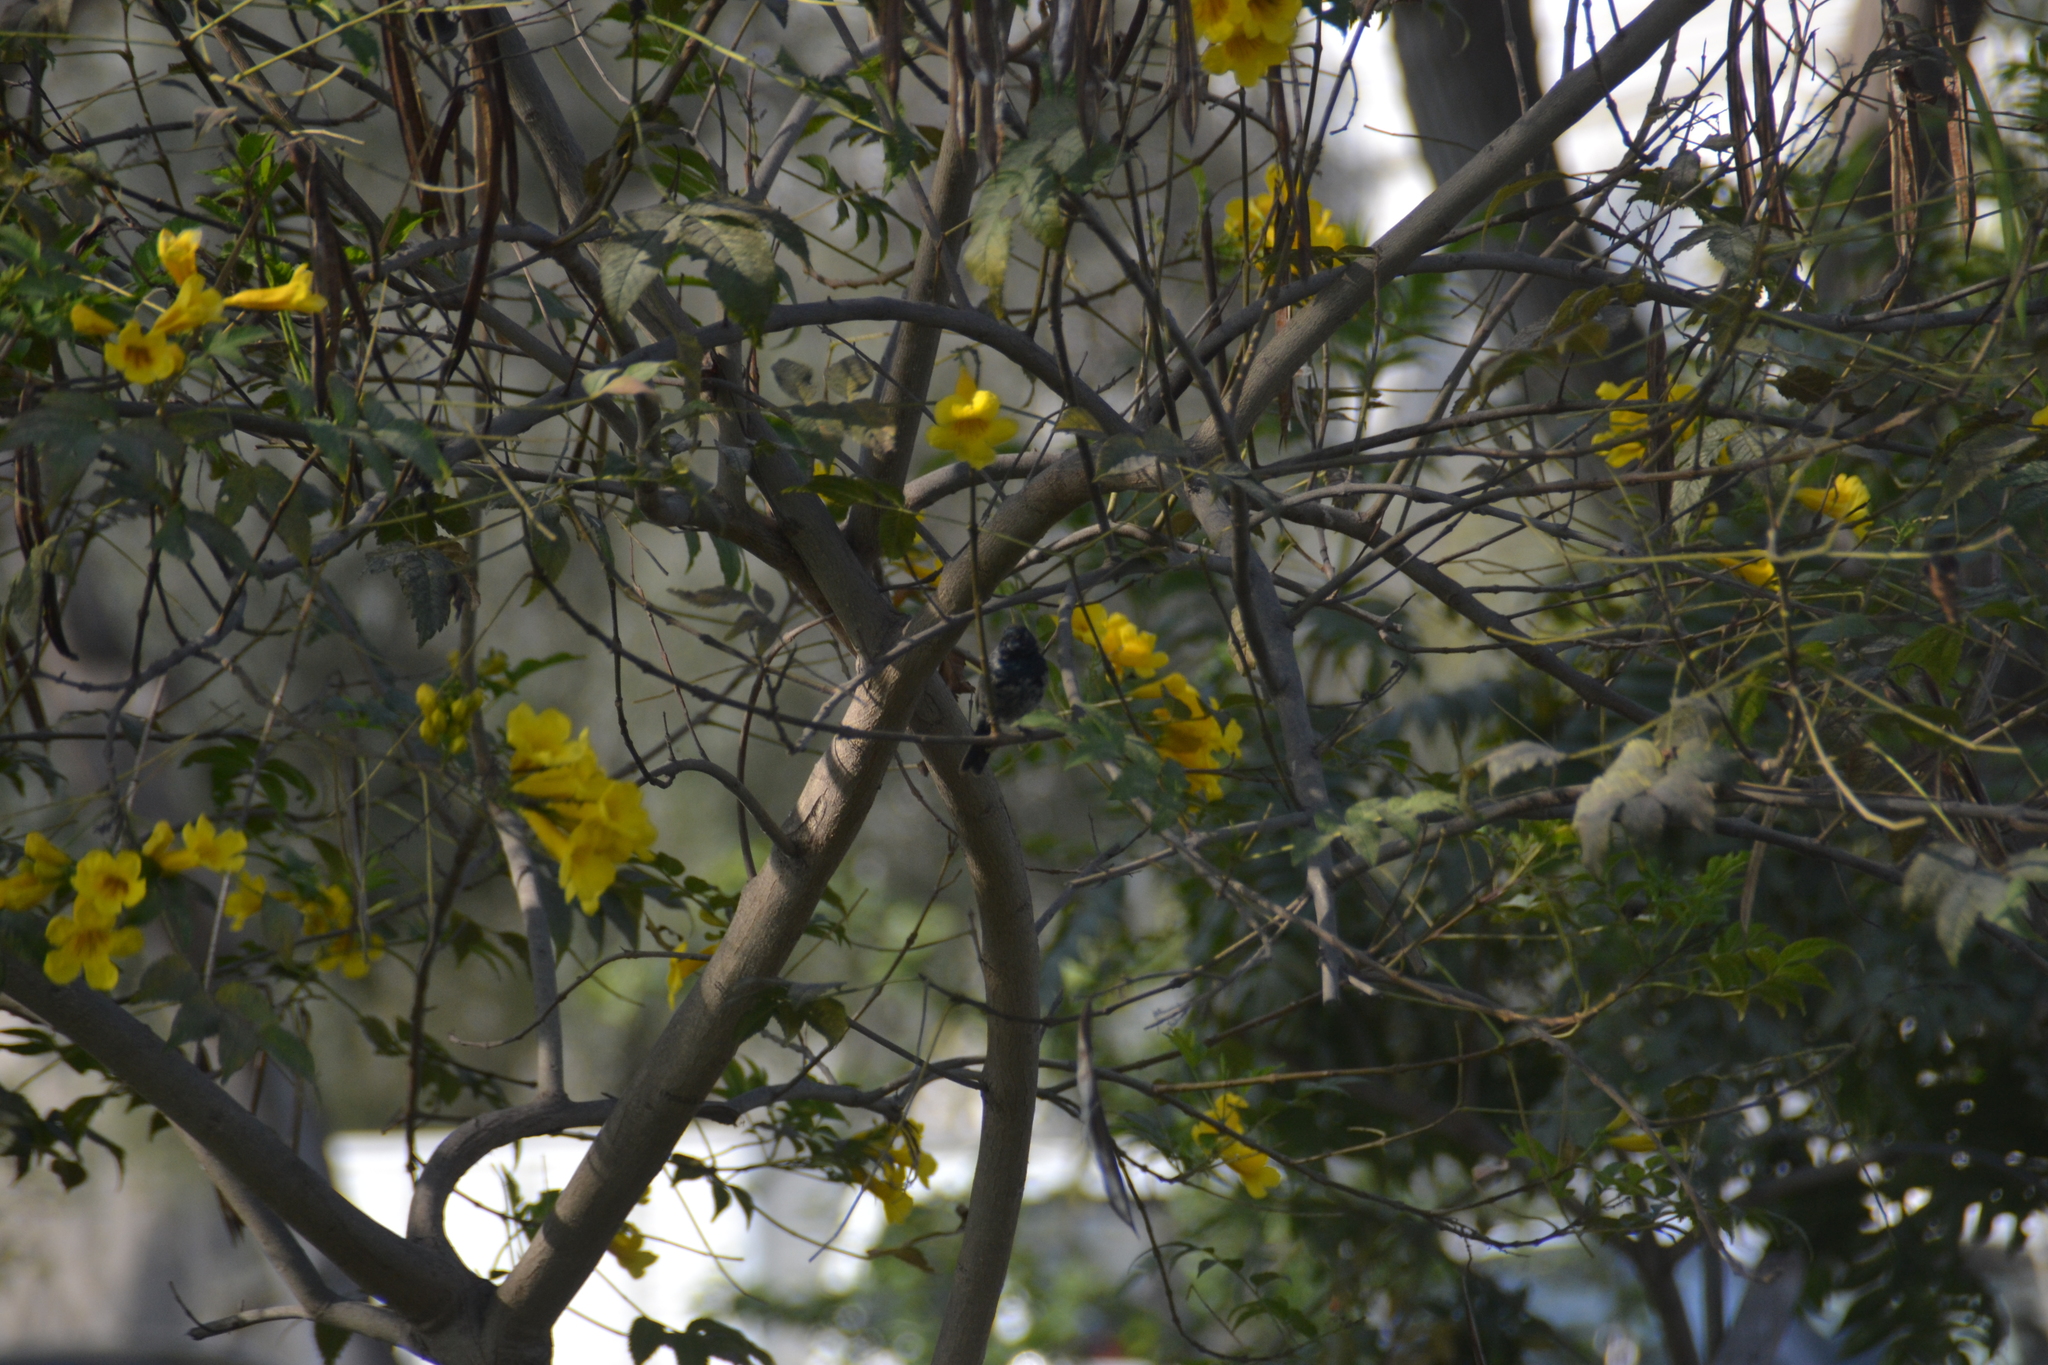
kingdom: Animalia
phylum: Chordata
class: Aves
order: Passeriformes
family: Thraupidae
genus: Volatinia
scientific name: Volatinia jacarina
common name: Blue-black grassquit
